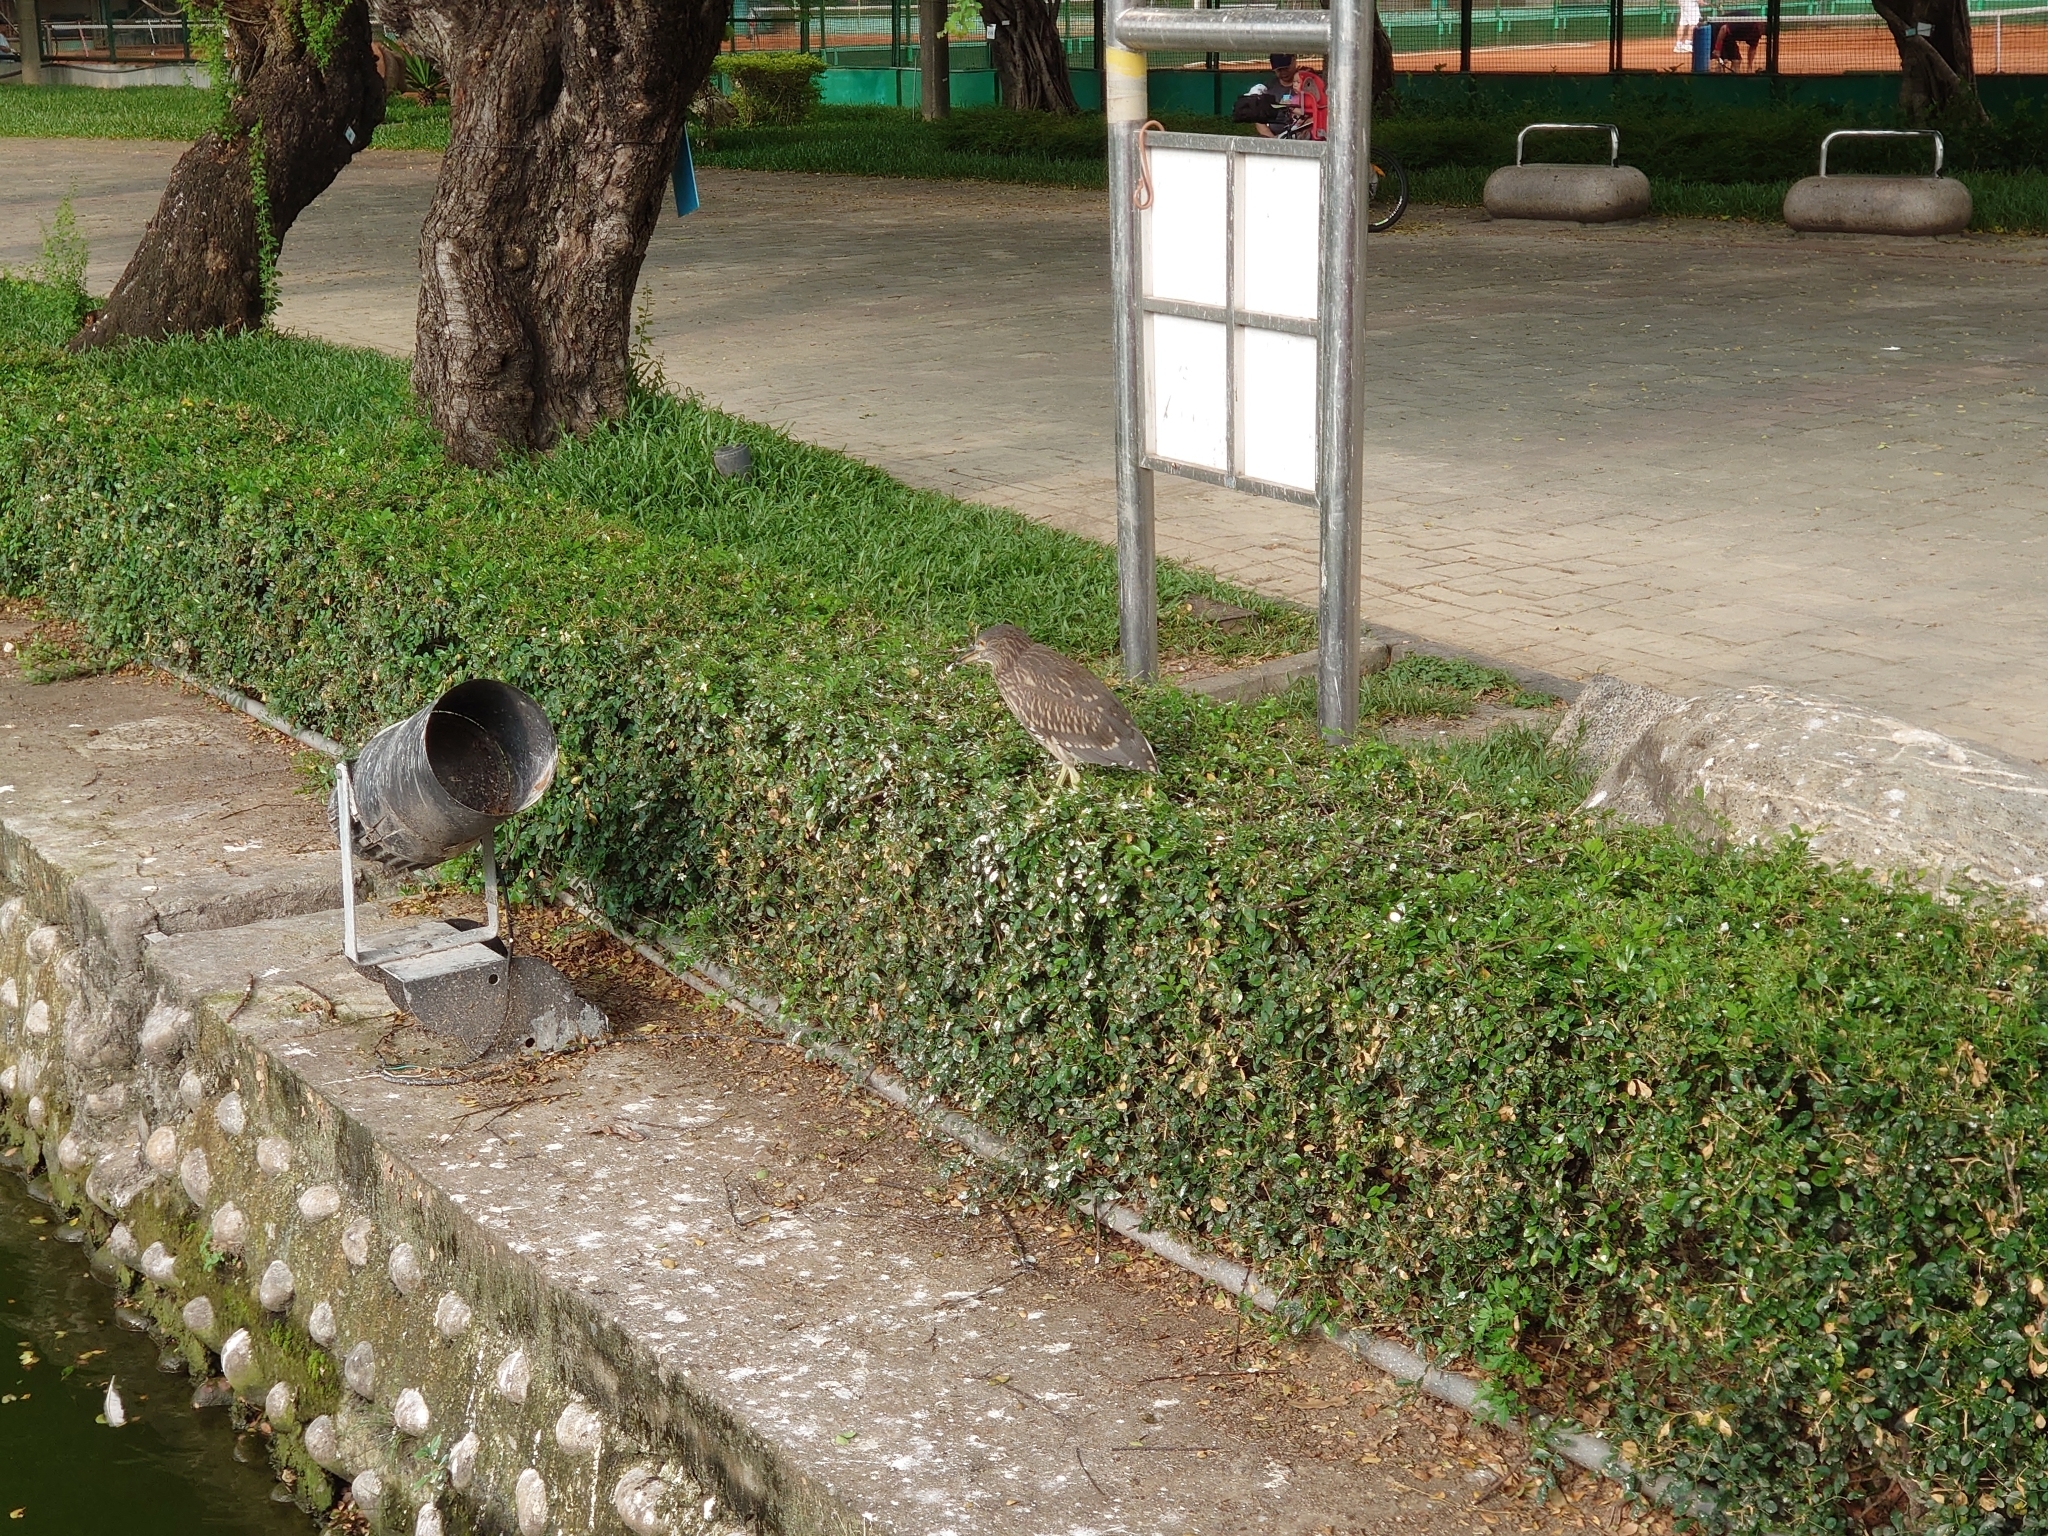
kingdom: Animalia
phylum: Chordata
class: Aves
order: Pelecaniformes
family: Ardeidae
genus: Nycticorax
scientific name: Nycticorax nycticorax
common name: Black-crowned night heron
